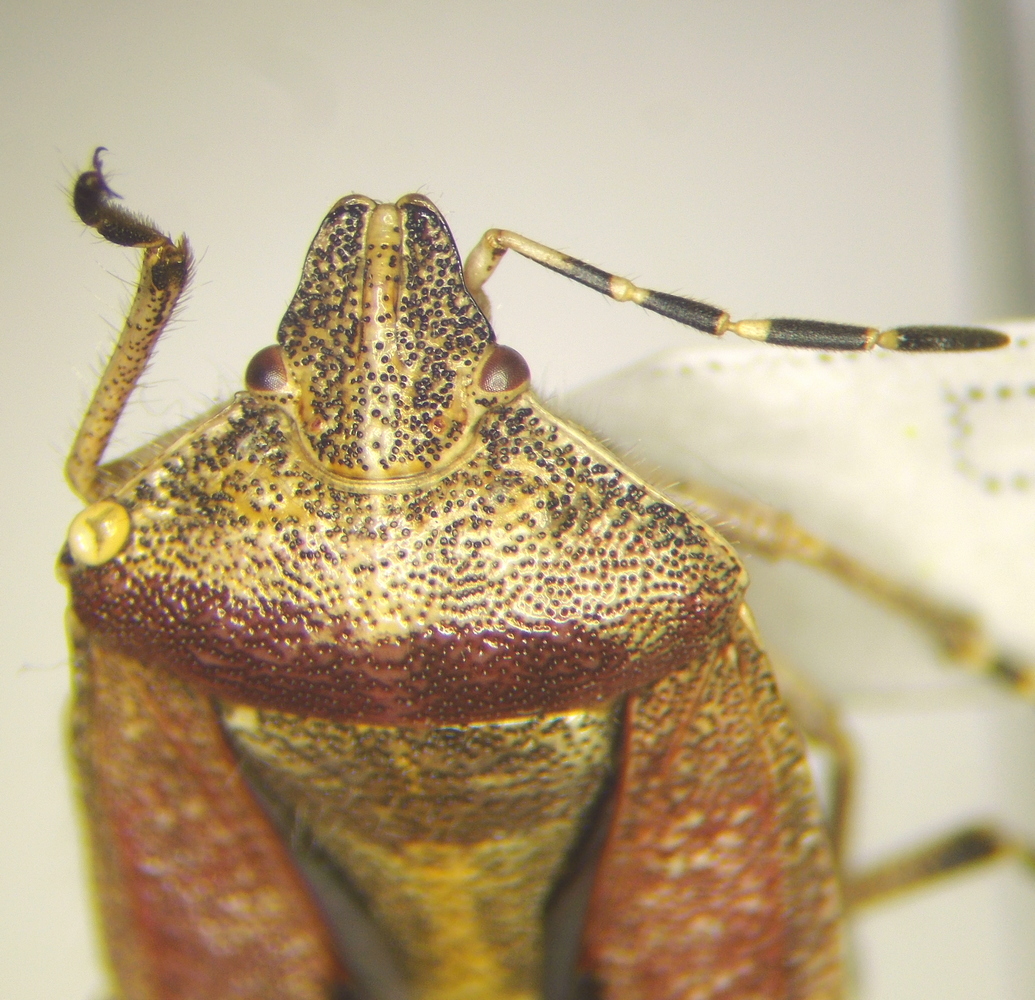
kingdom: Animalia
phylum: Arthropoda
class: Insecta
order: Hemiptera
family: Pentatomidae
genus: Dolycoris
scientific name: Dolycoris baccarum
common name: Sloe bug
